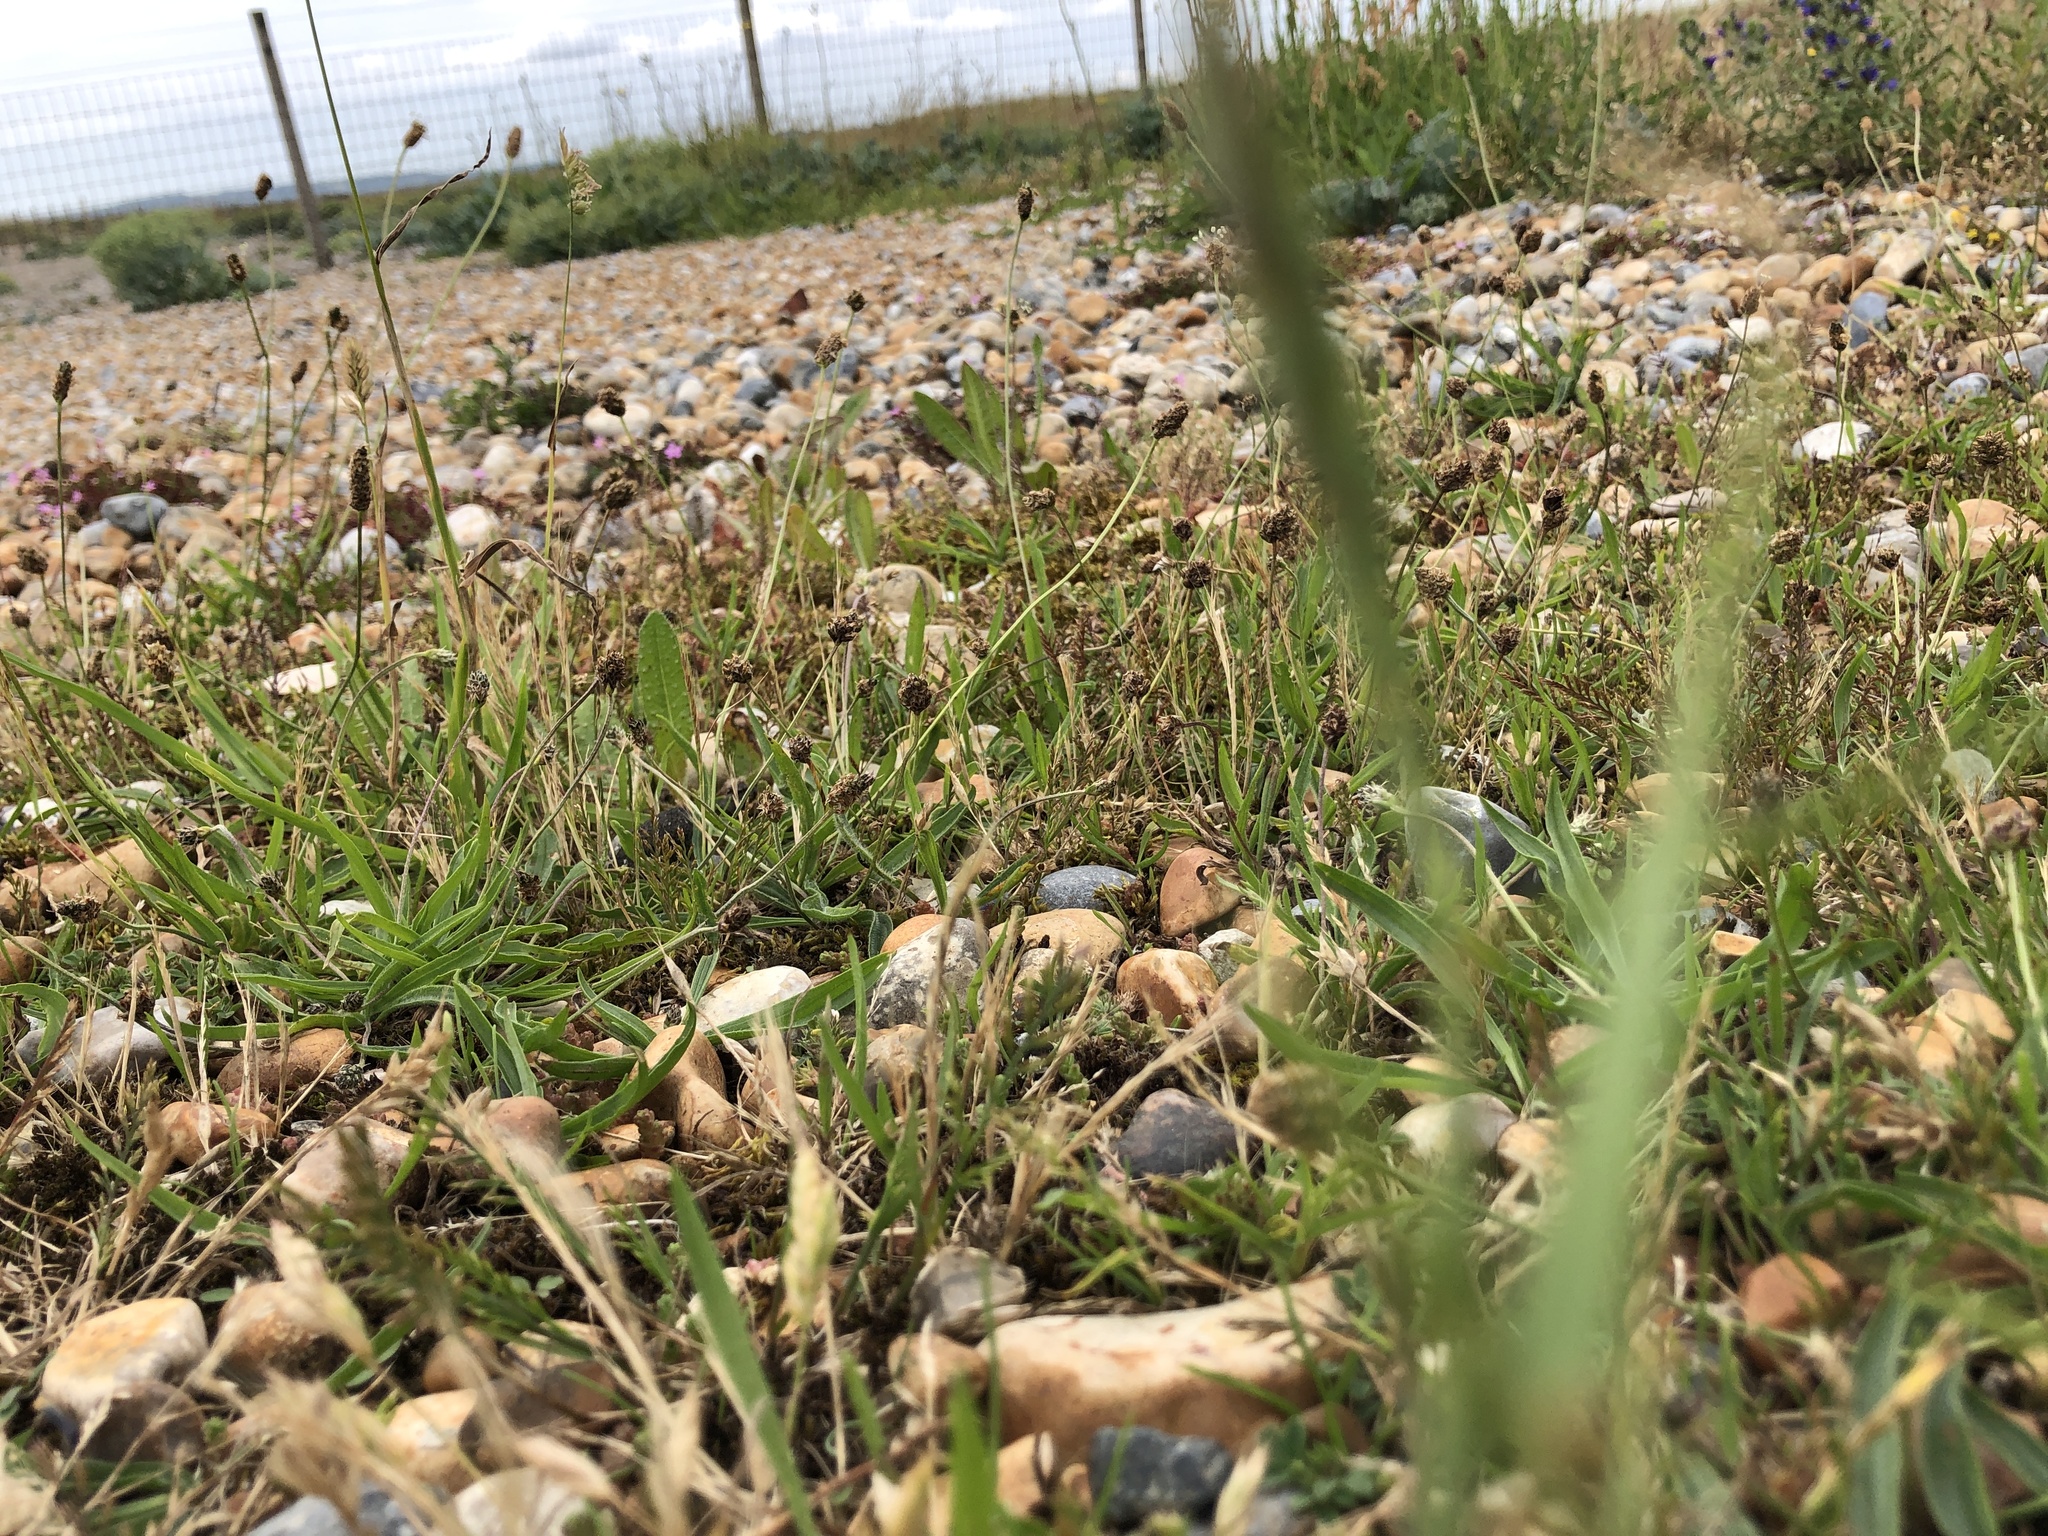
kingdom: Plantae
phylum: Bryophyta
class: Bryopsida
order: Pottiales
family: Pottiaceae
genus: Syntrichia
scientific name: Syntrichia ruralis
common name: Sidewalk screw moss
